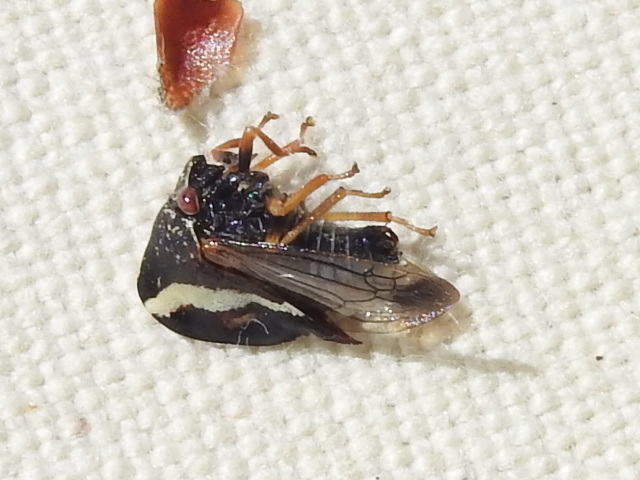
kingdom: Animalia
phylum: Arthropoda
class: Insecta
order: Hemiptera
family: Membracidae
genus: Smilia
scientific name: Smilia camelus
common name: Camel treehopper
